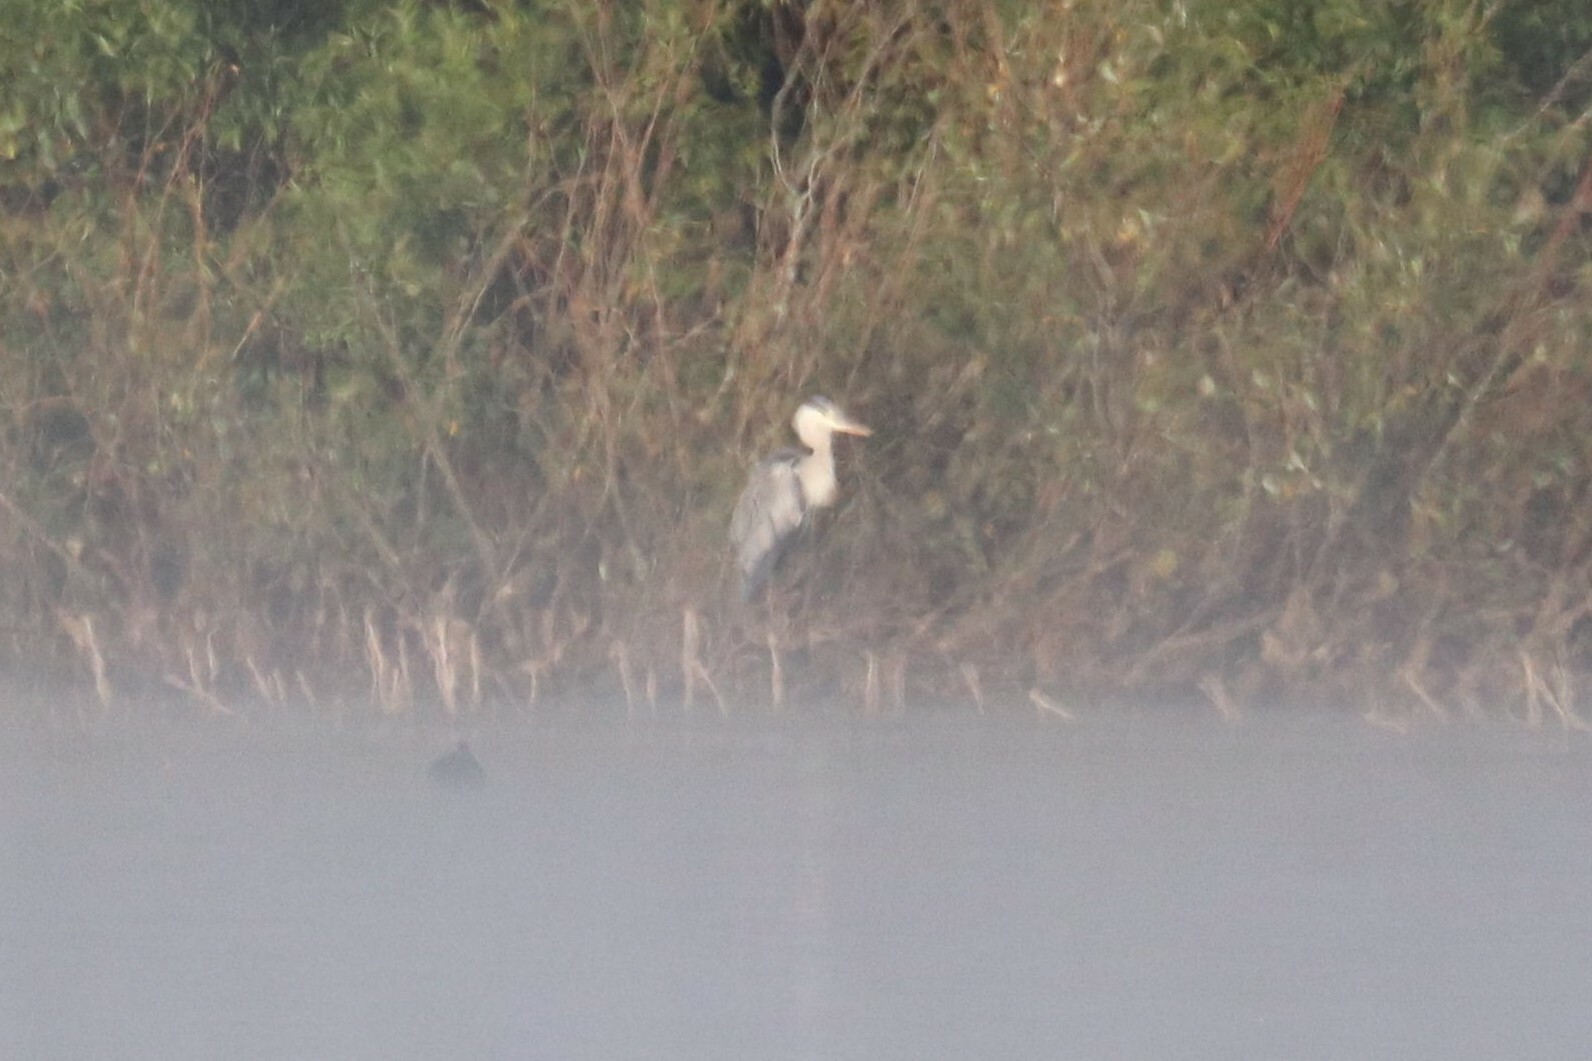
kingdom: Animalia
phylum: Chordata
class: Aves
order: Pelecaniformes
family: Ardeidae
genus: Ardea
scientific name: Ardea cinerea
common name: Grey heron
